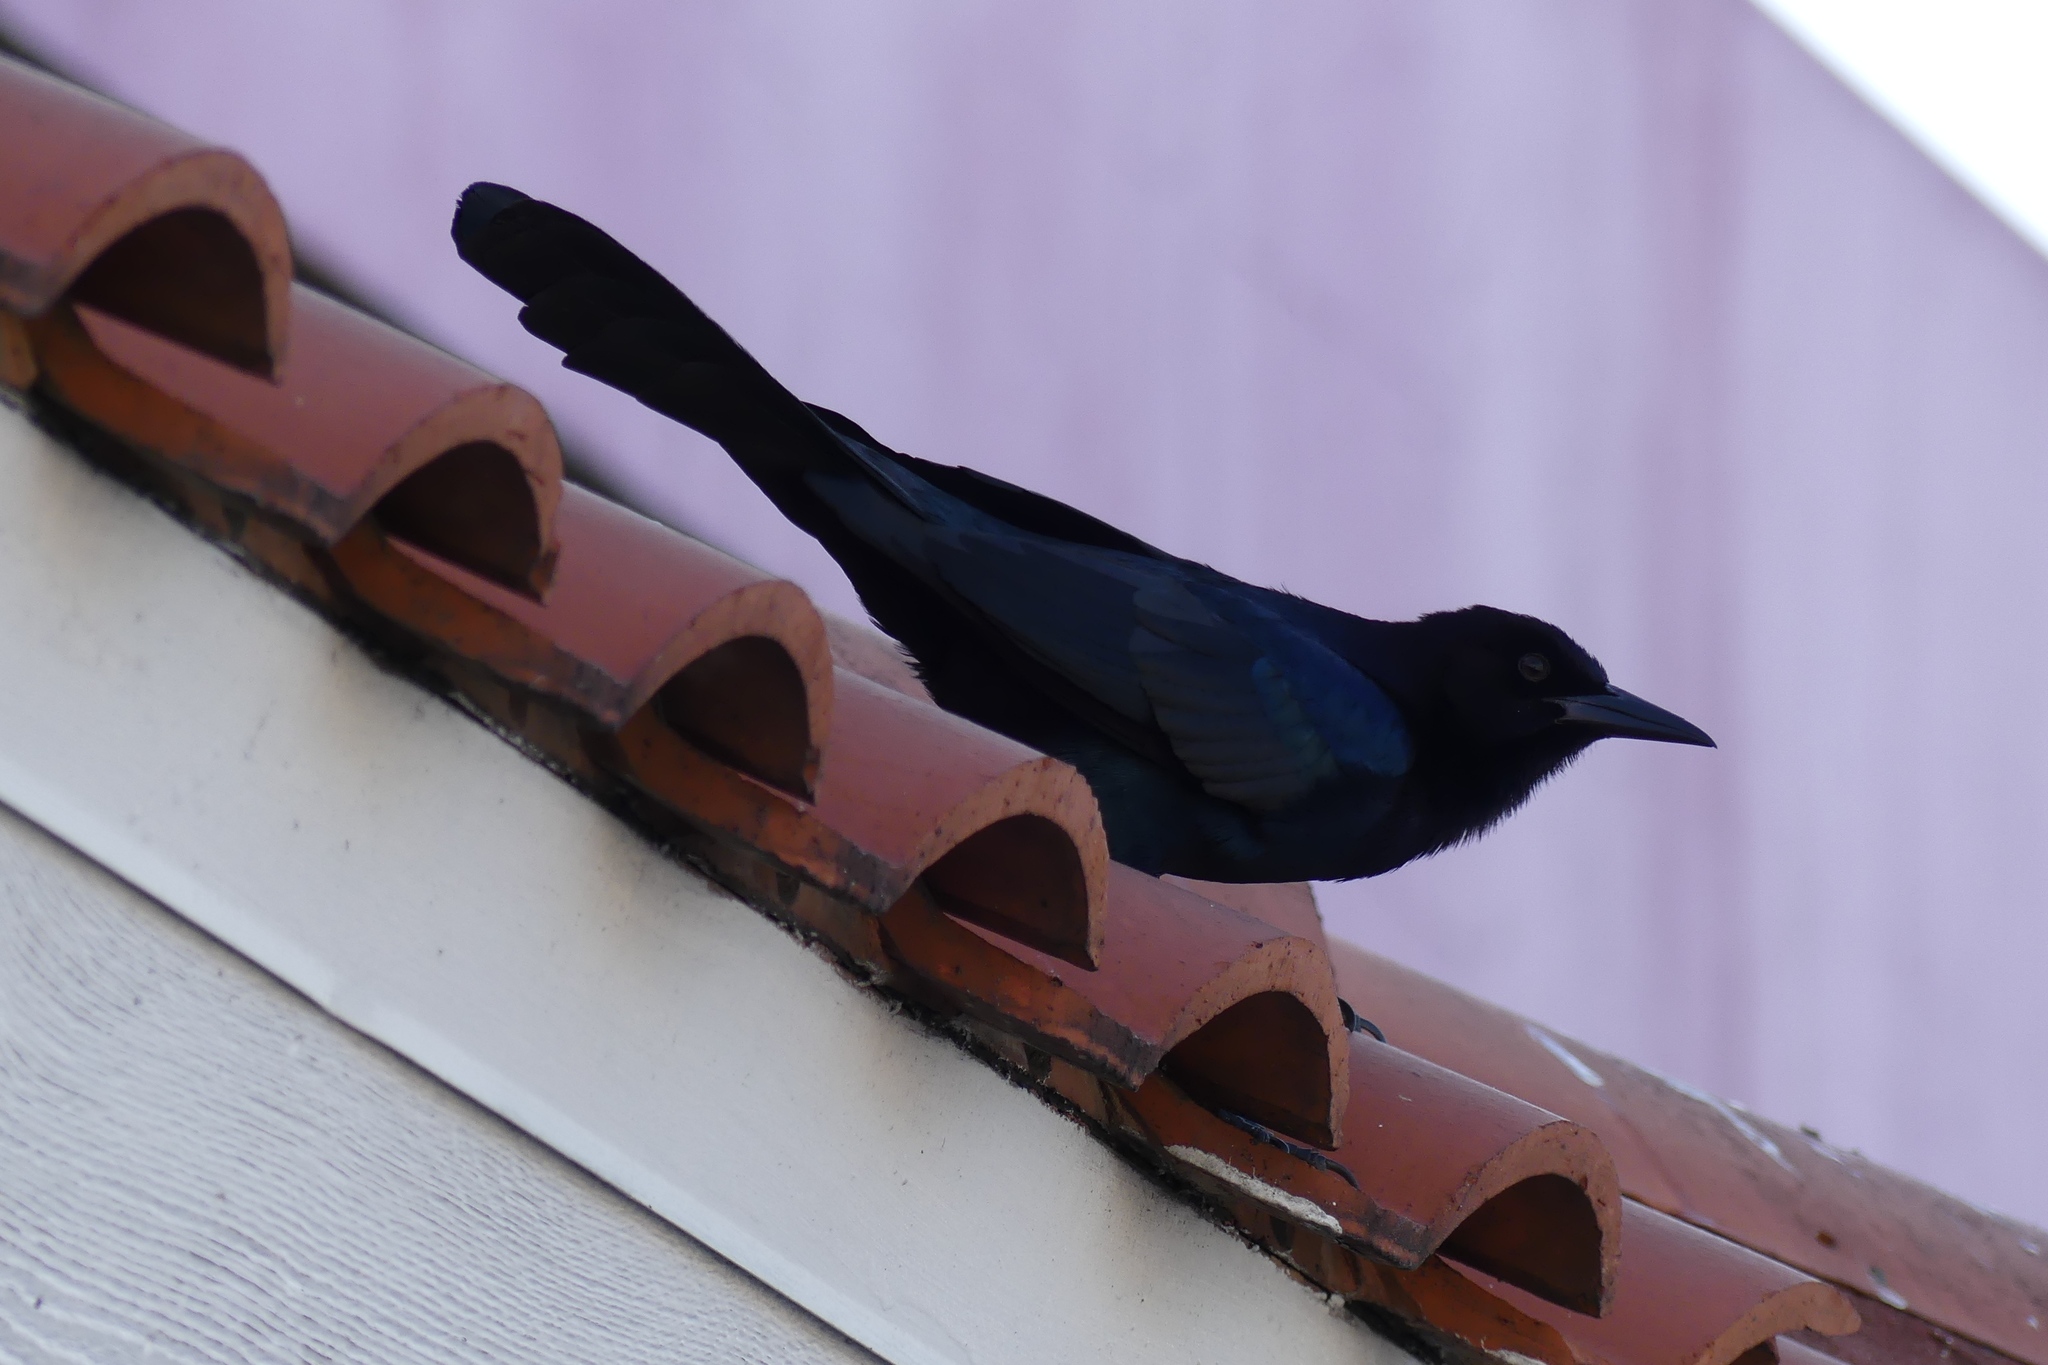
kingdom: Animalia
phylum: Chordata
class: Aves
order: Passeriformes
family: Icteridae
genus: Quiscalus
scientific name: Quiscalus major
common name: Boat-tailed grackle
